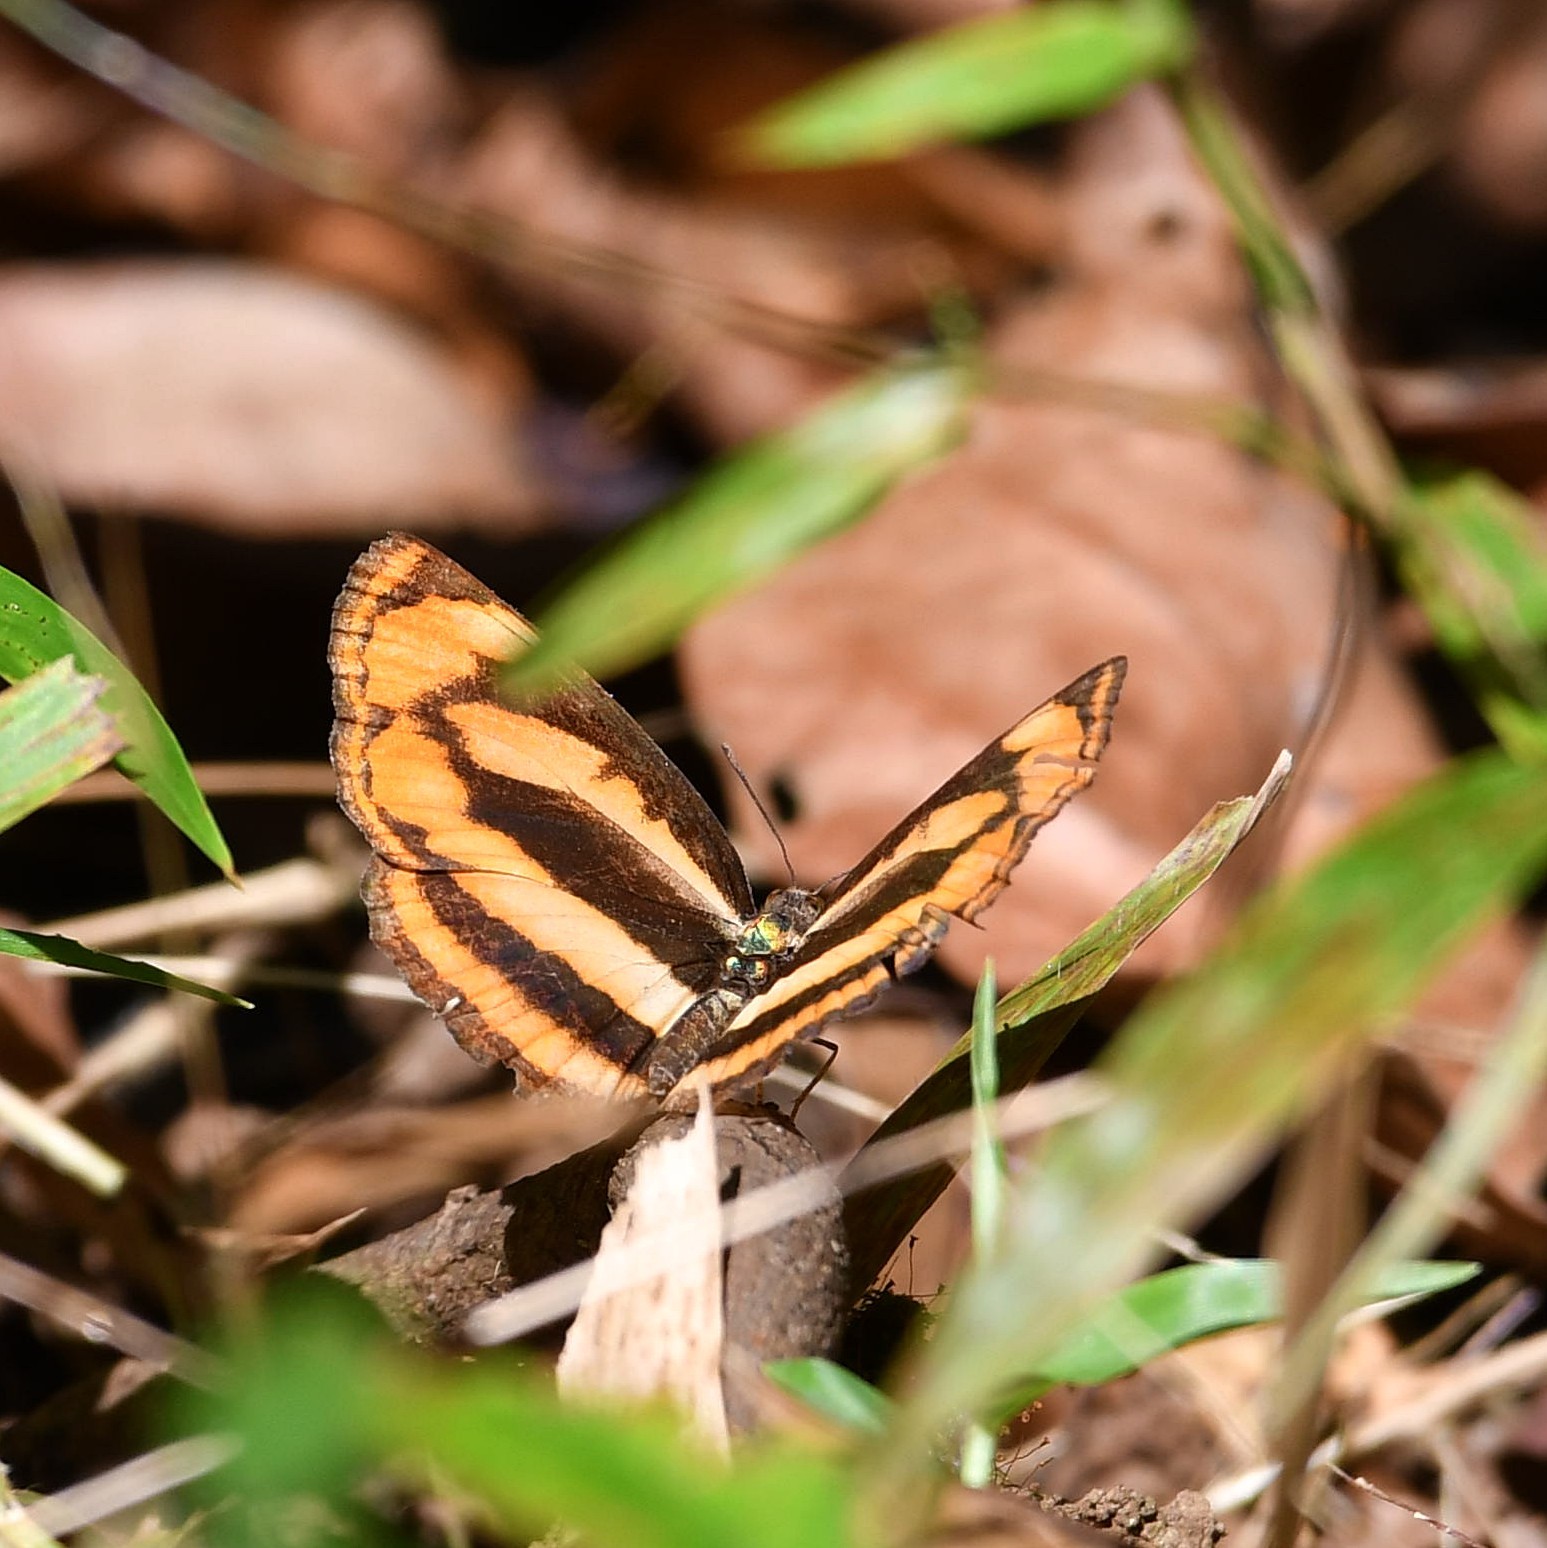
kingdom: Animalia
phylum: Arthropoda
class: Insecta
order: Lepidoptera
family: Nymphalidae
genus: Pantoporia
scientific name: Pantoporia hordonia
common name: Common lascar
